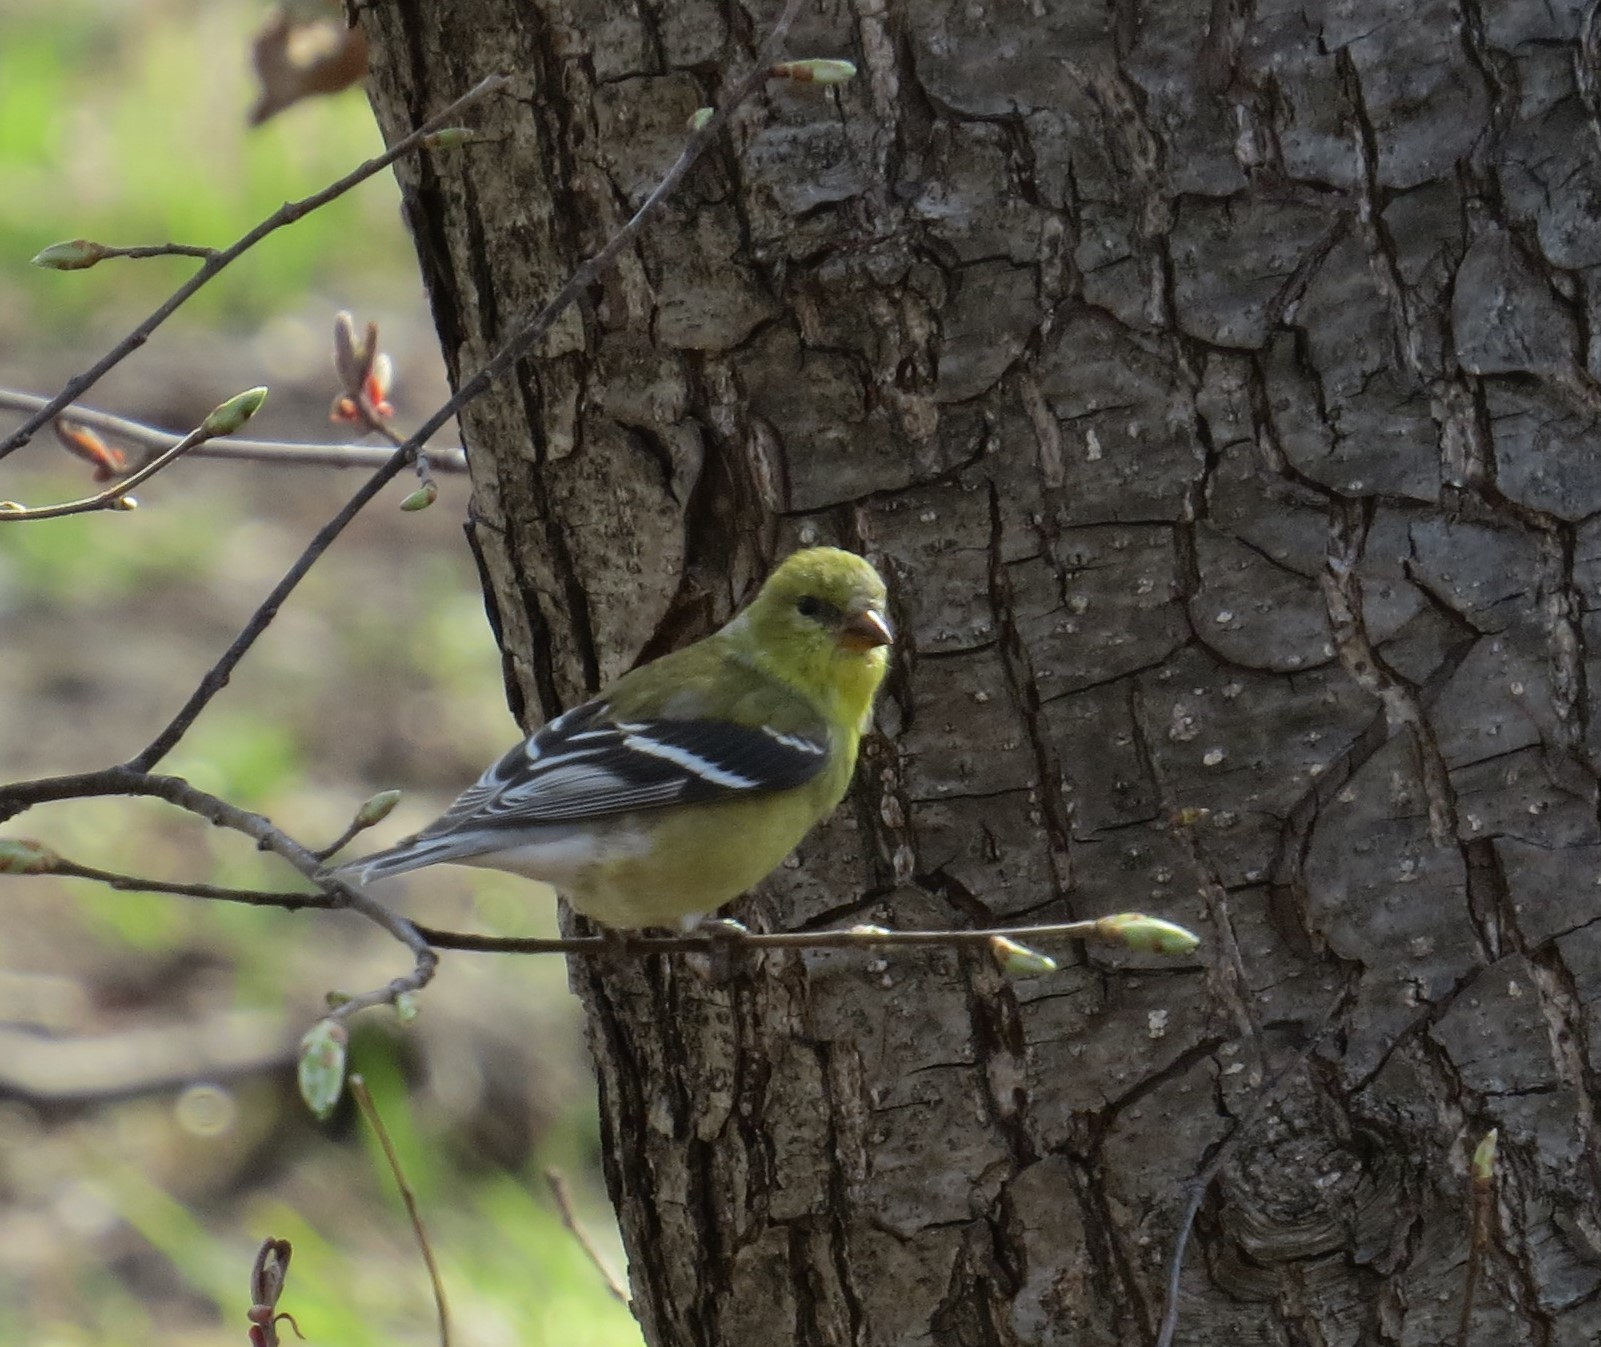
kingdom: Animalia
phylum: Chordata
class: Aves
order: Passeriformes
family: Fringillidae
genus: Spinus
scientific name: Spinus tristis
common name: American goldfinch
